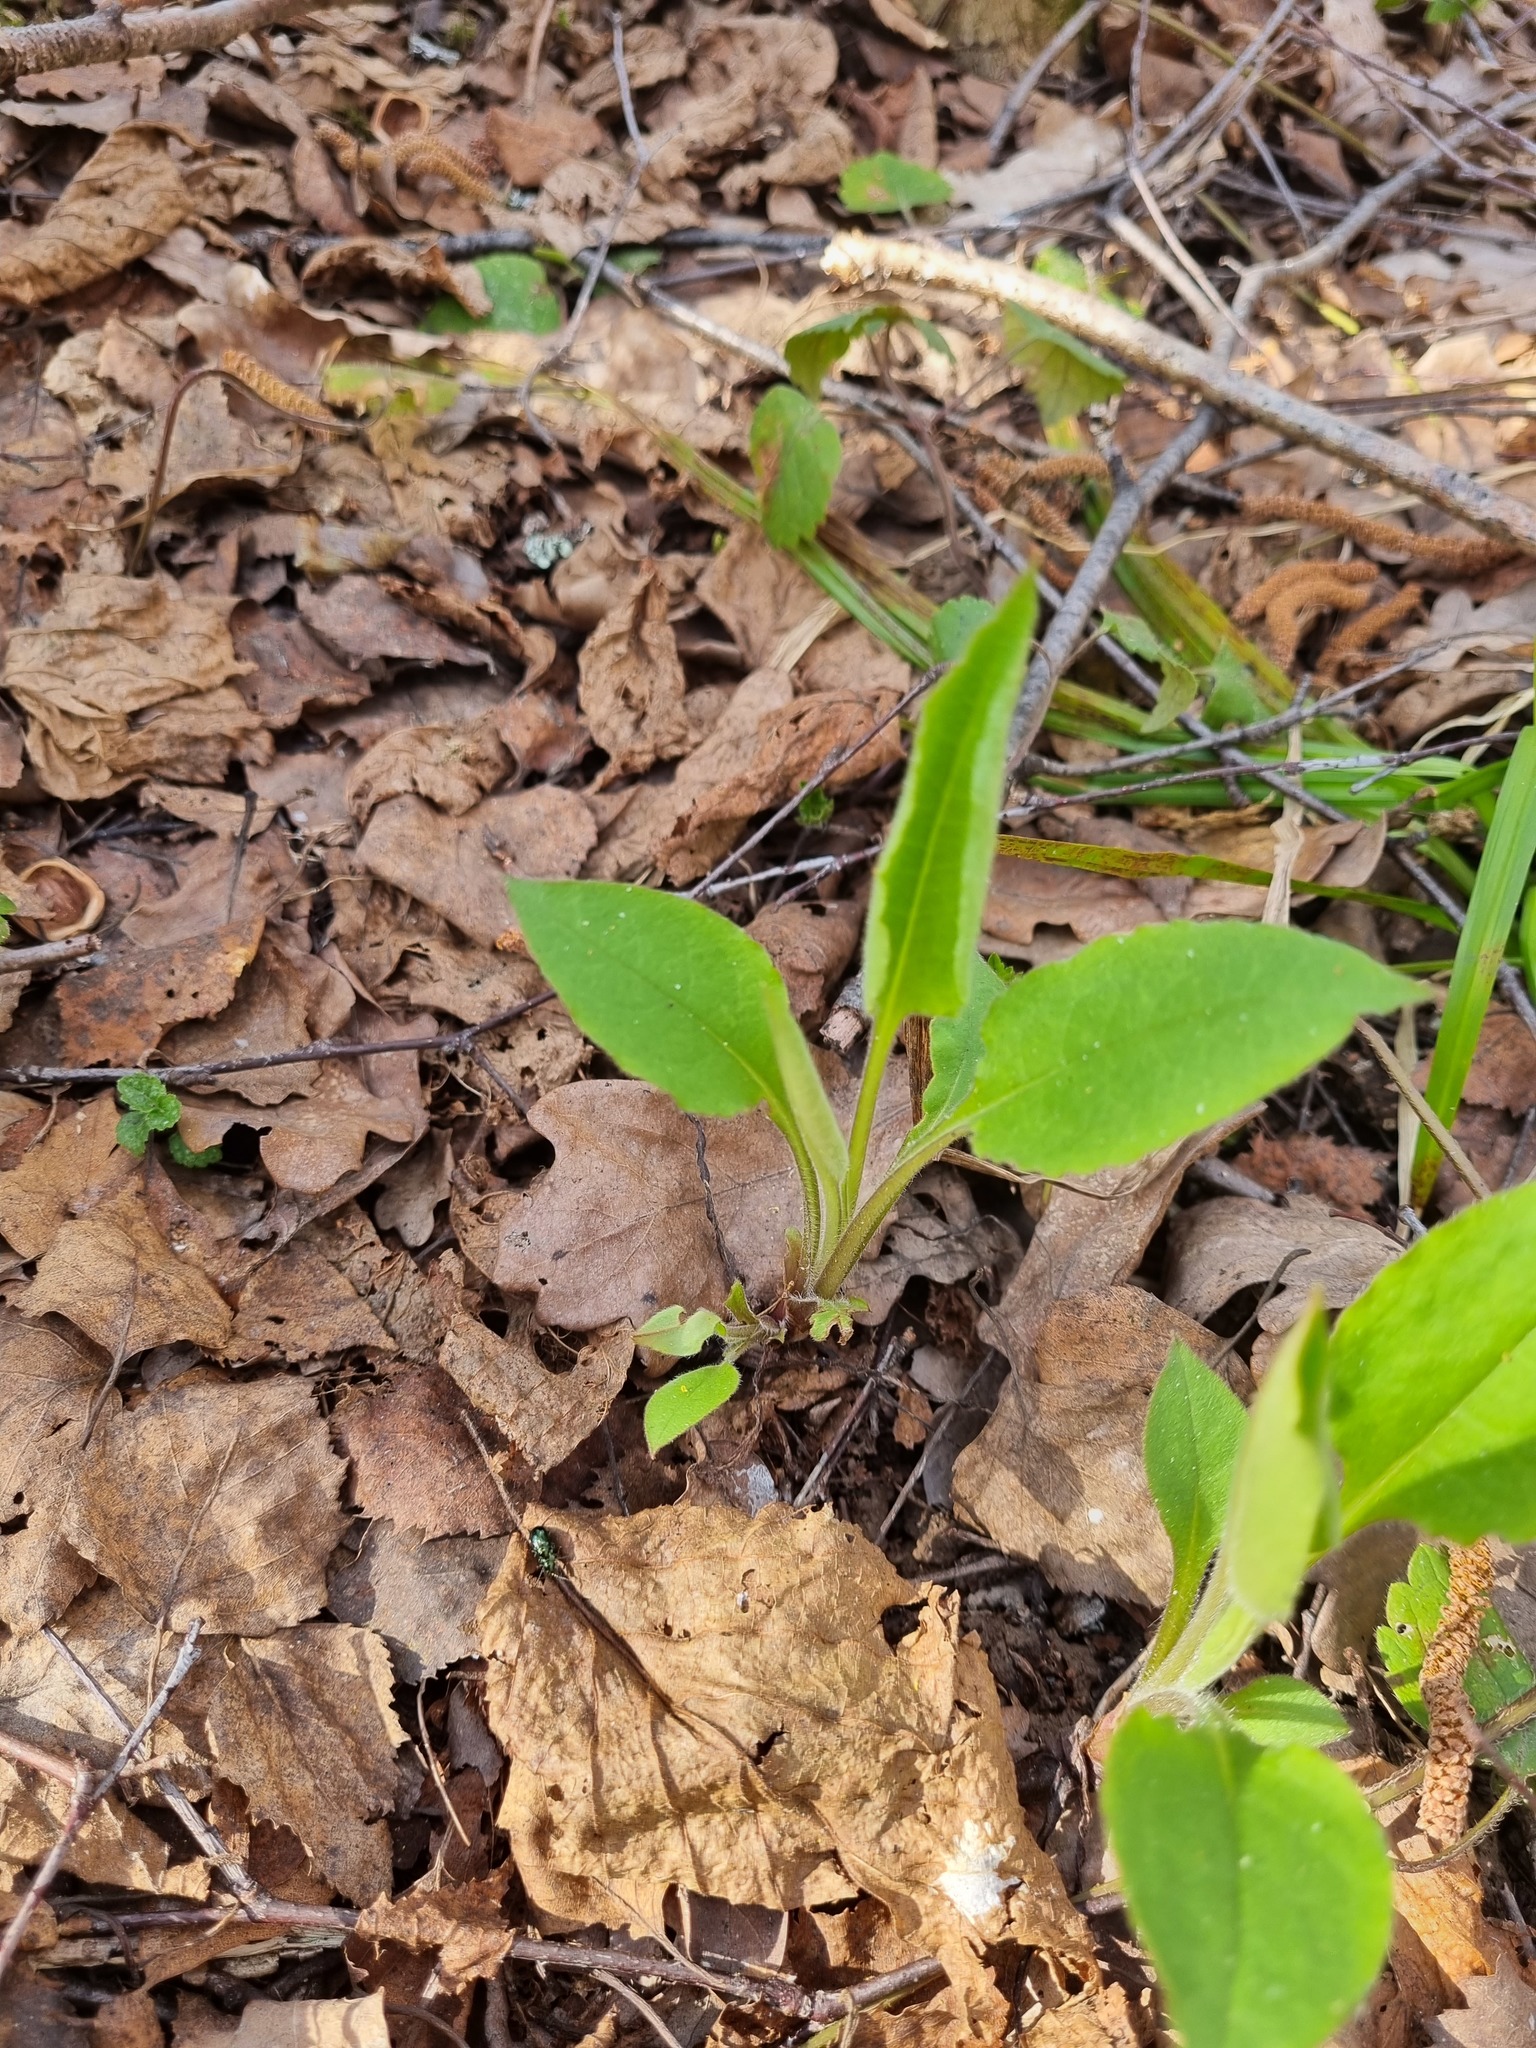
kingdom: Plantae
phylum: Tracheophyta
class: Magnoliopsida
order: Boraginales
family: Boraginaceae
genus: Pulmonaria
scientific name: Pulmonaria obscura
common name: Suffolk lungwort
